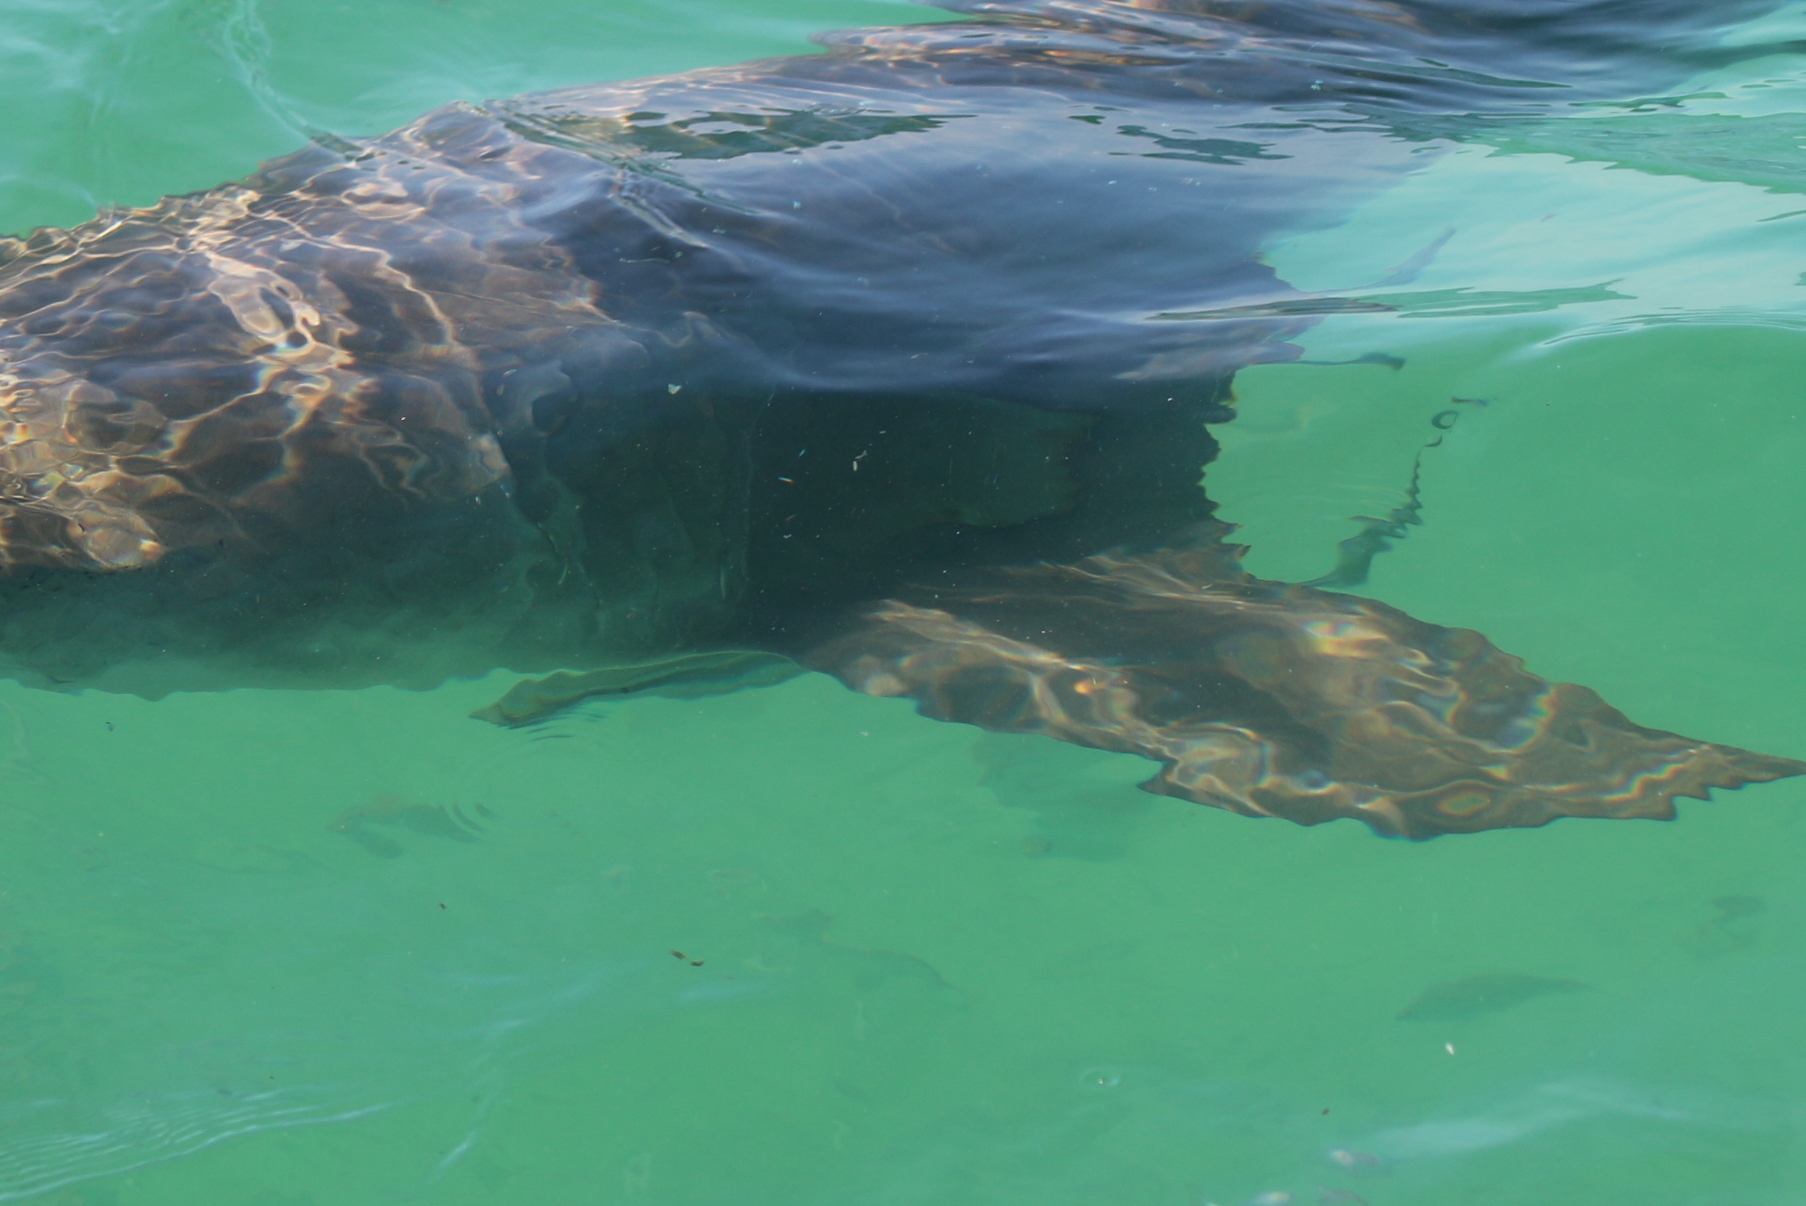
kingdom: Animalia
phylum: Chordata
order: Perciformes
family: Echeneidae
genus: Echeneis
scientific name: Echeneis naucrates
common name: Sharksucker
